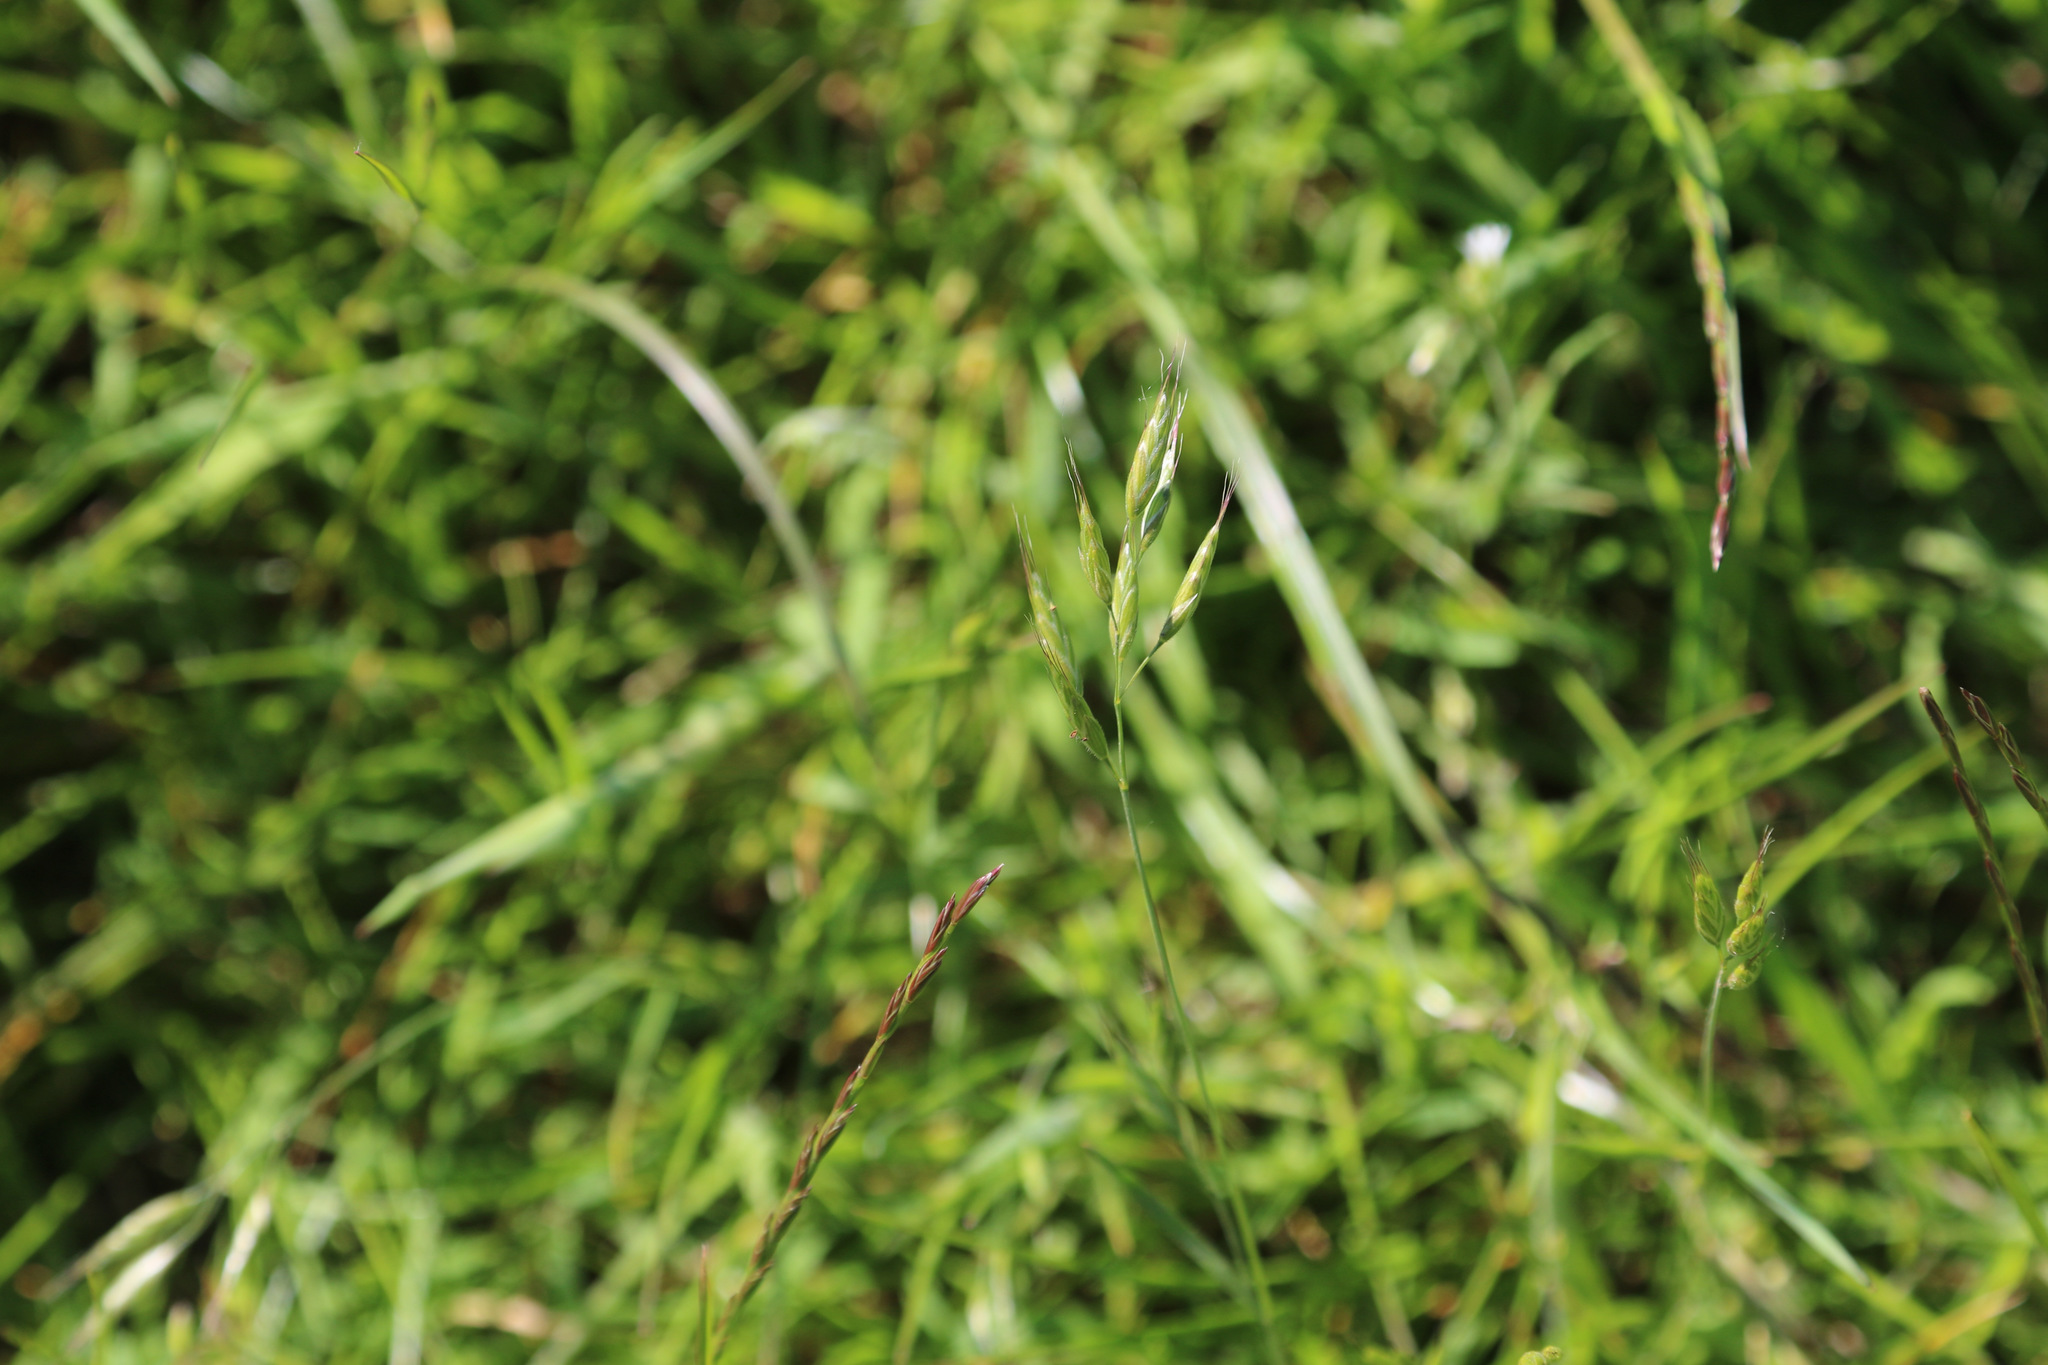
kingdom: Plantae
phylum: Tracheophyta
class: Liliopsida
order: Poales
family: Poaceae
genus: Bromus
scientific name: Bromus hordeaceus
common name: Soft brome
